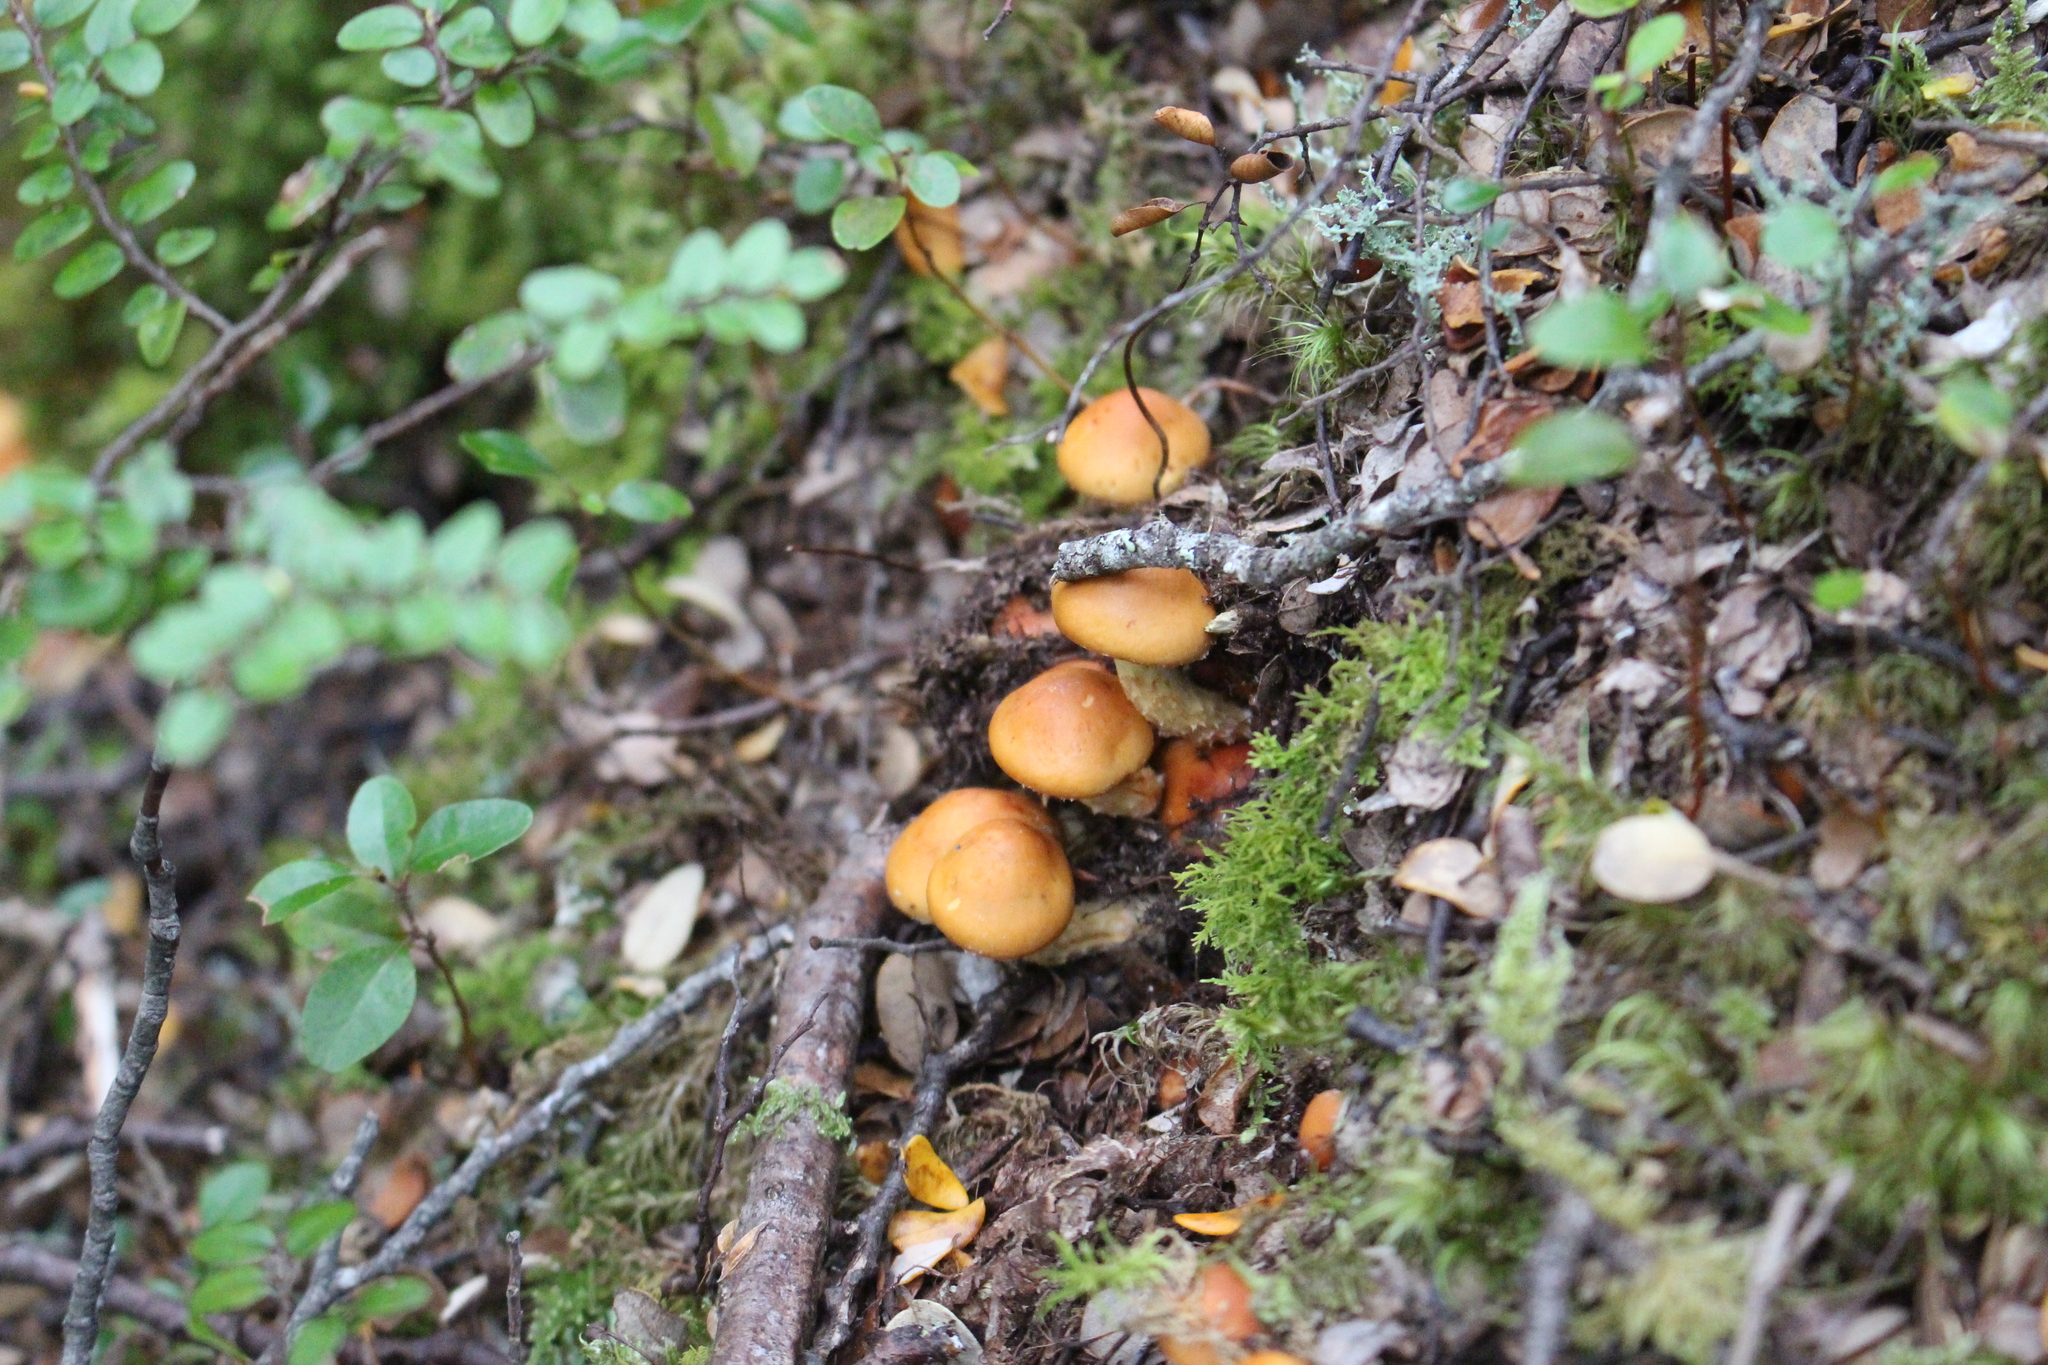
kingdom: Fungi
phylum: Basidiomycota
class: Agaricomycetes
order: Agaricales
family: Strophariaceae
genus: Hypholoma
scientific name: Hypholoma australianum
